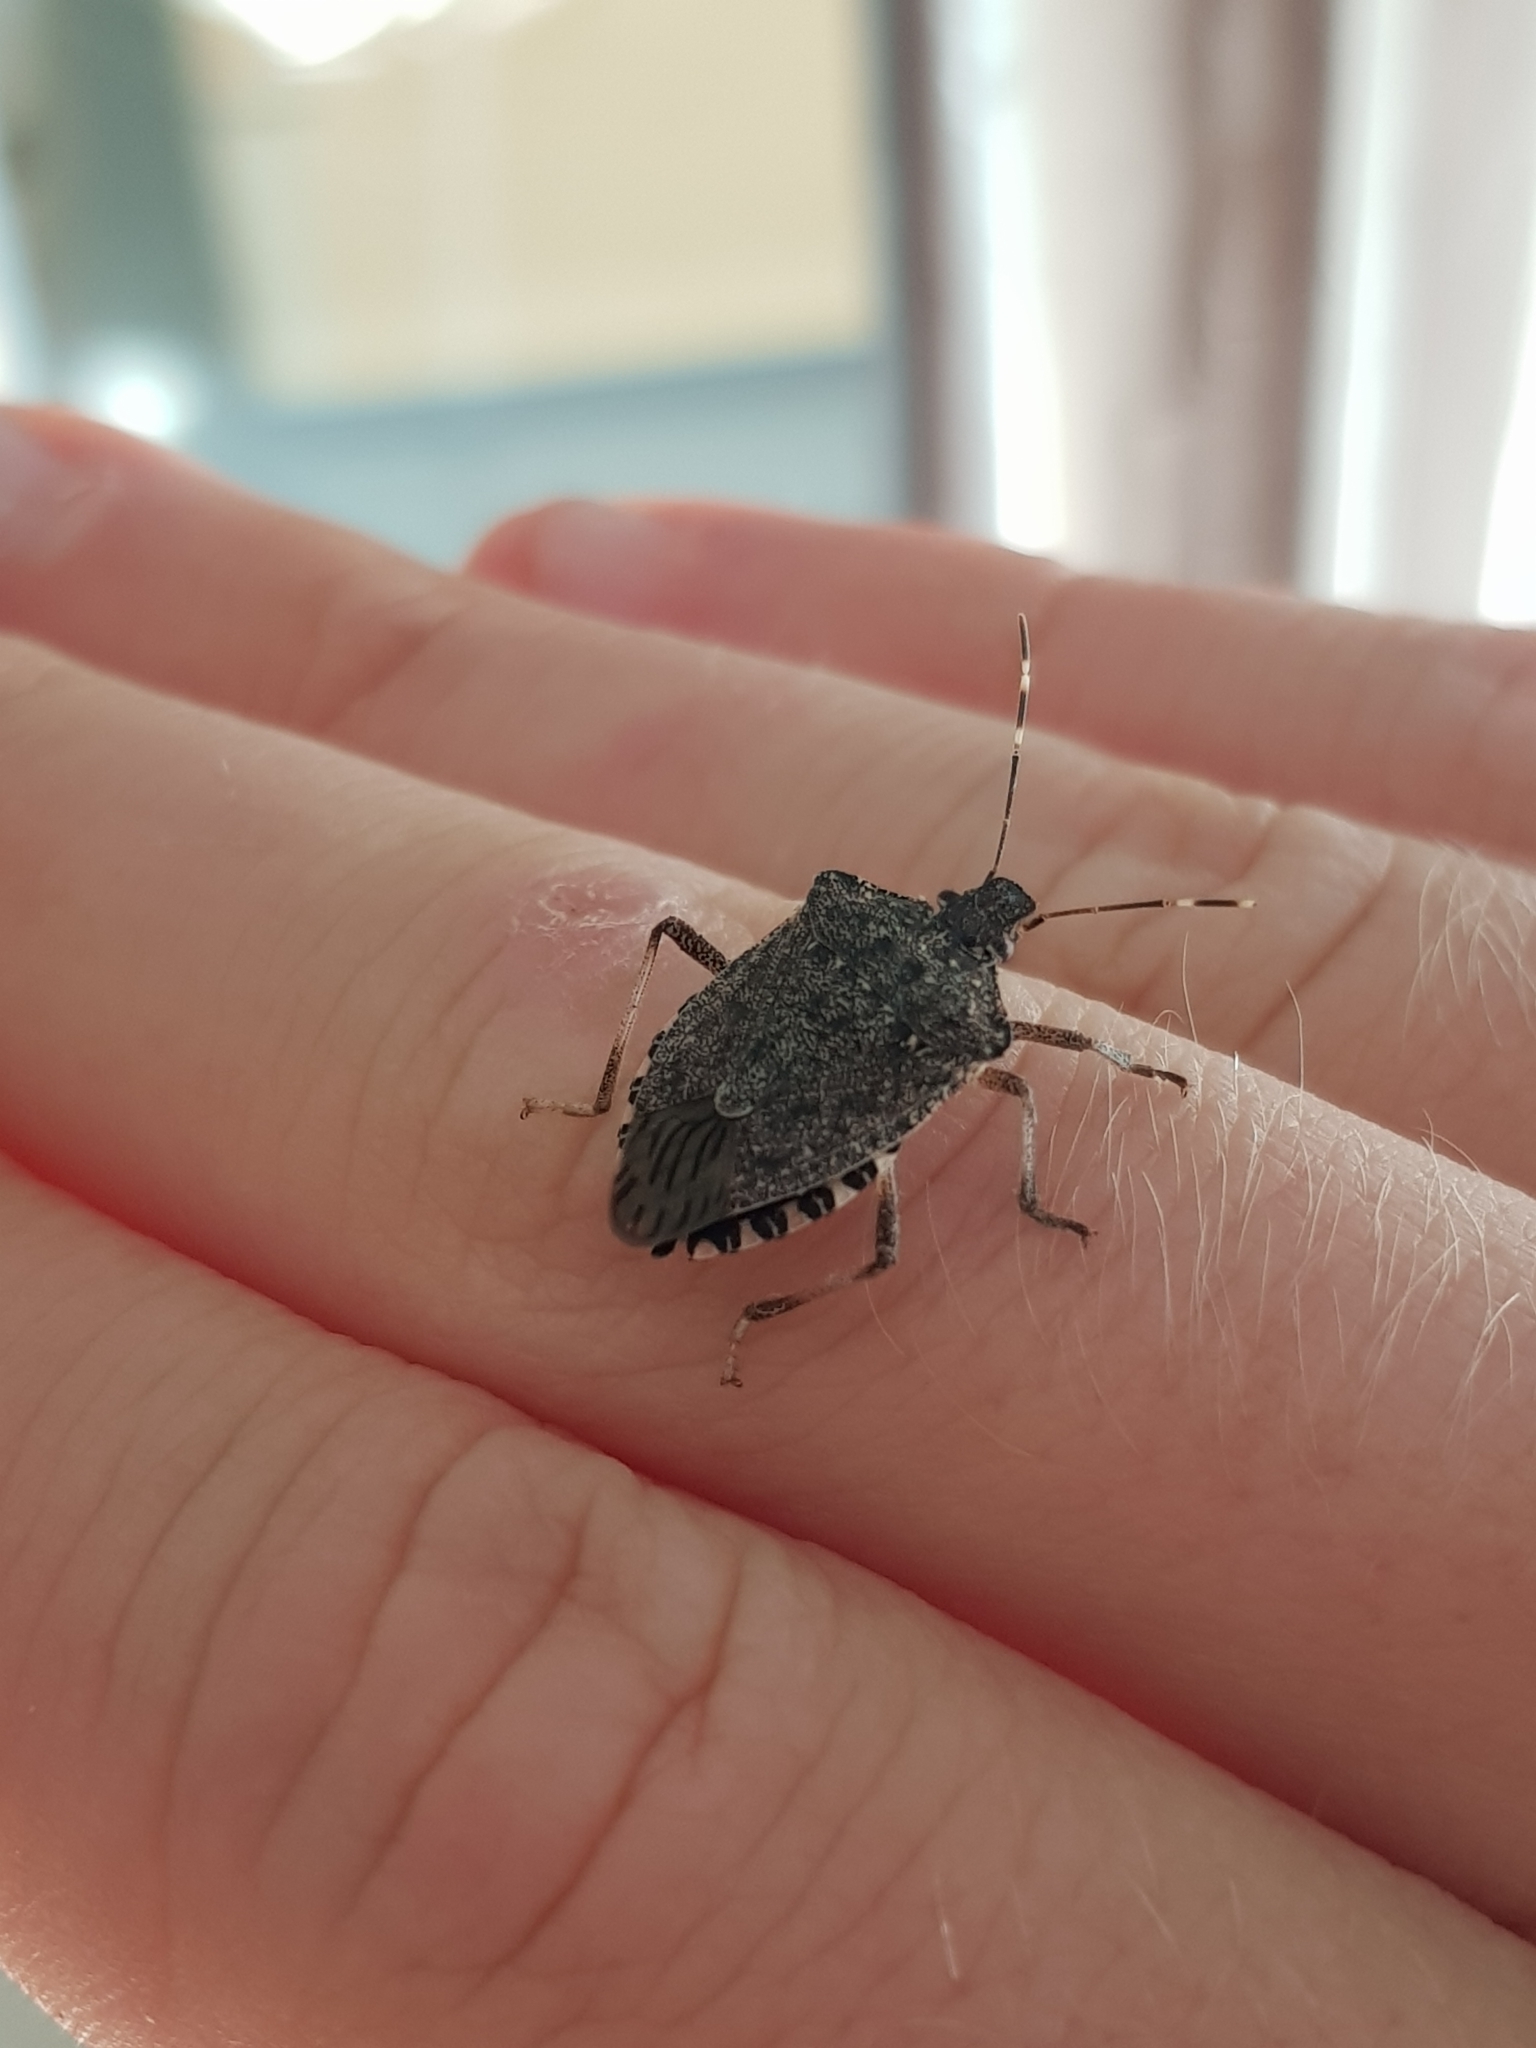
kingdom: Animalia
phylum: Arthropoda
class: Insecta
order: Hemiptera
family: Pentatomidae
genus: Halyomorpha
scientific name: Halyomorpha halys
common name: Brown marmorated stink bug
